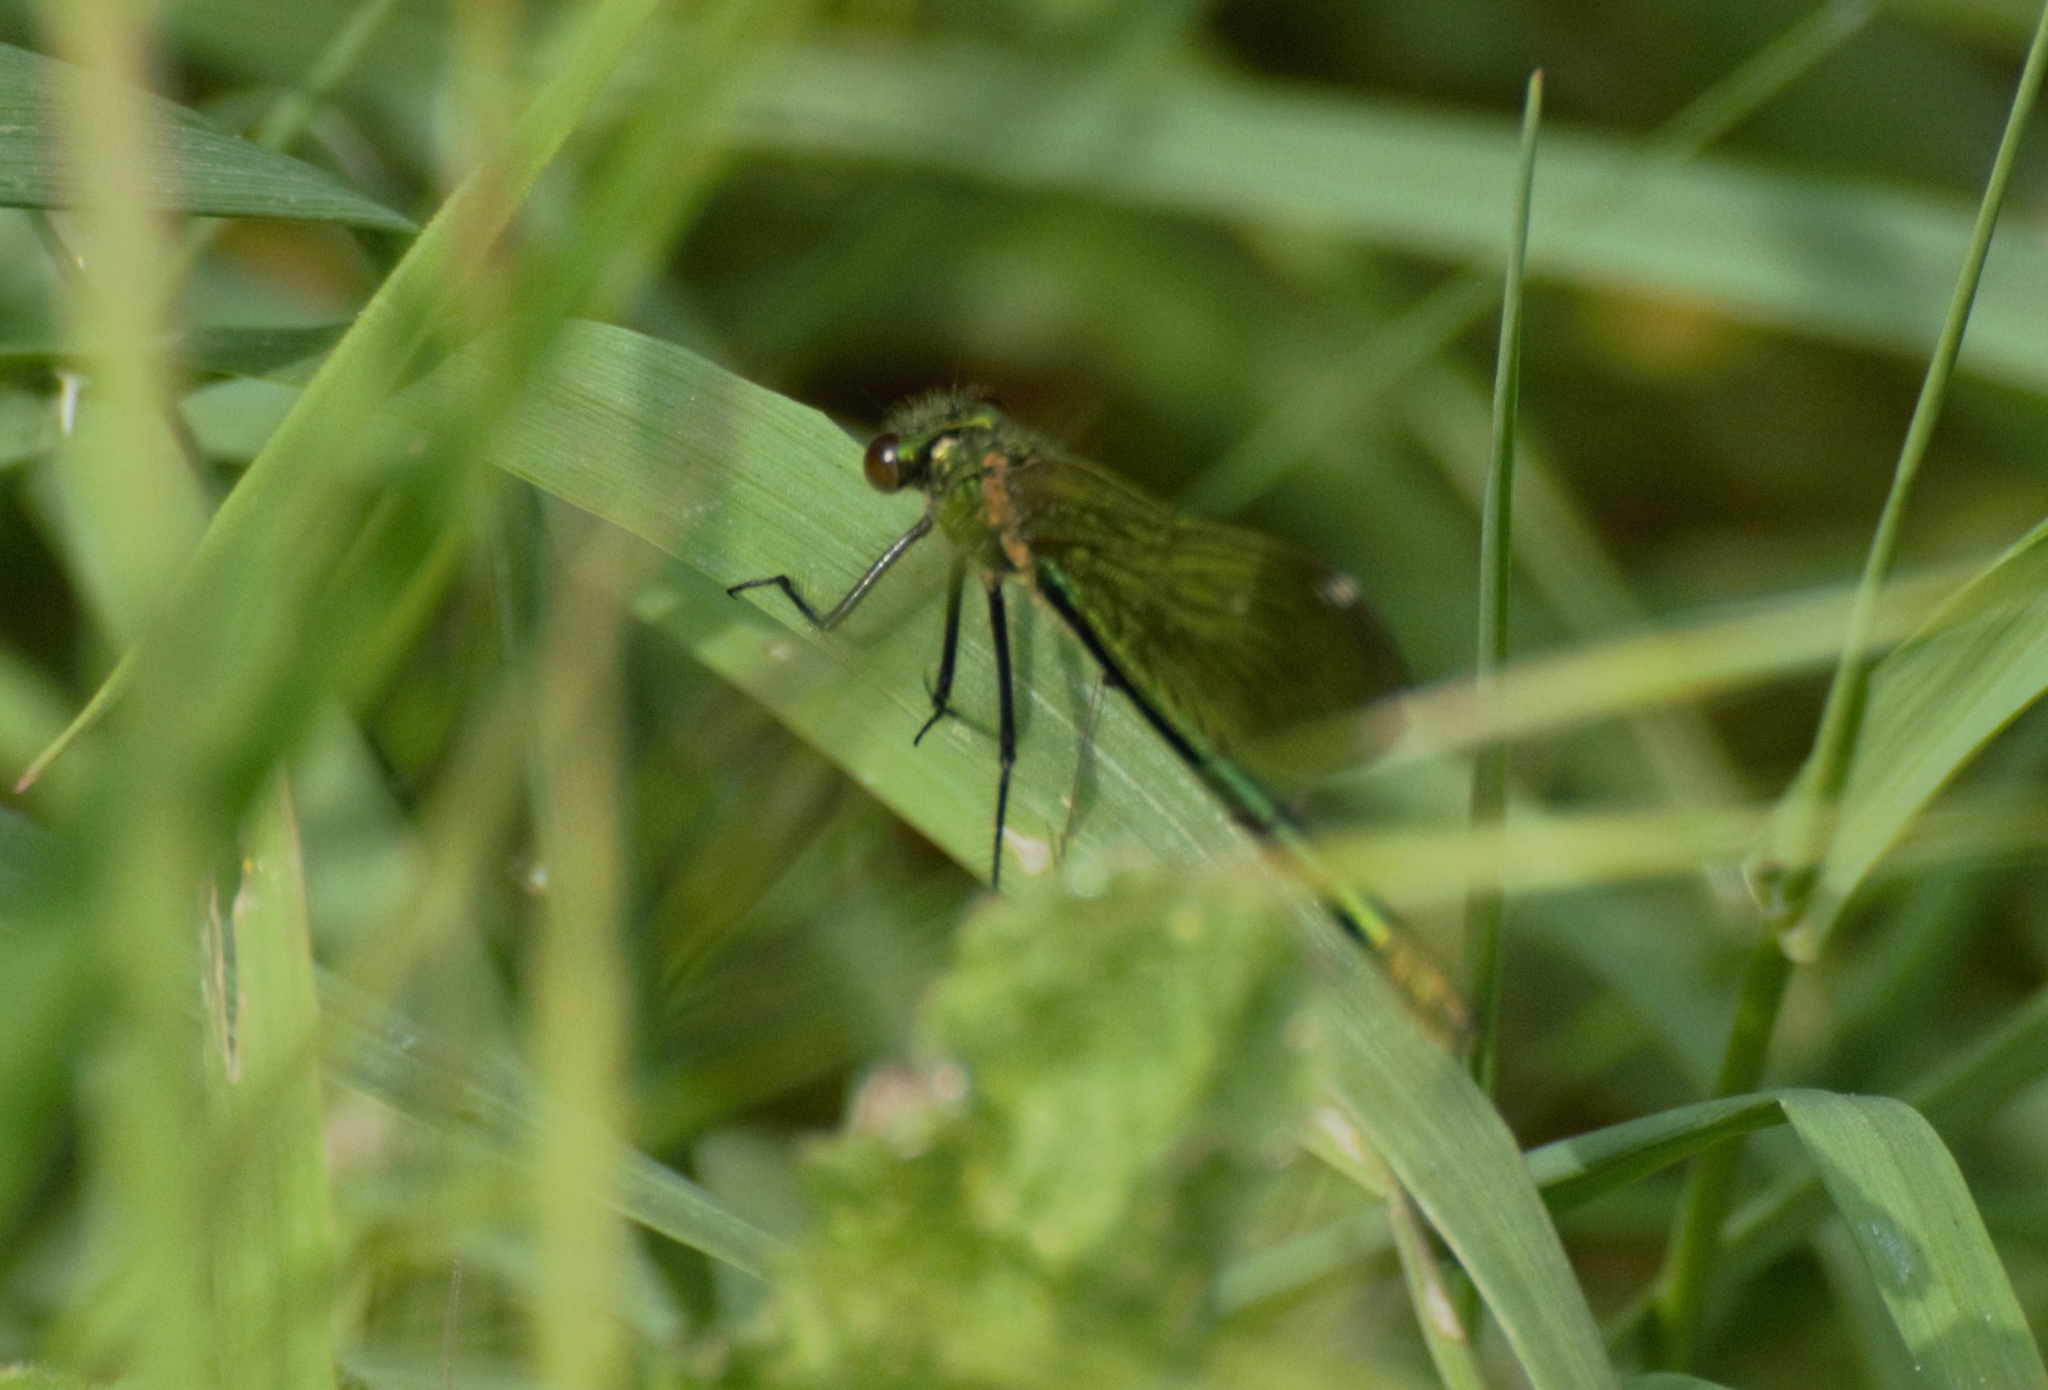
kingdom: Animalia
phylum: Arthropoda
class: Insecta
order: Odonata
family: Calopterygidae
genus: Calopteryx
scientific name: Calopteryx splendens
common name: Banded demoiselle
